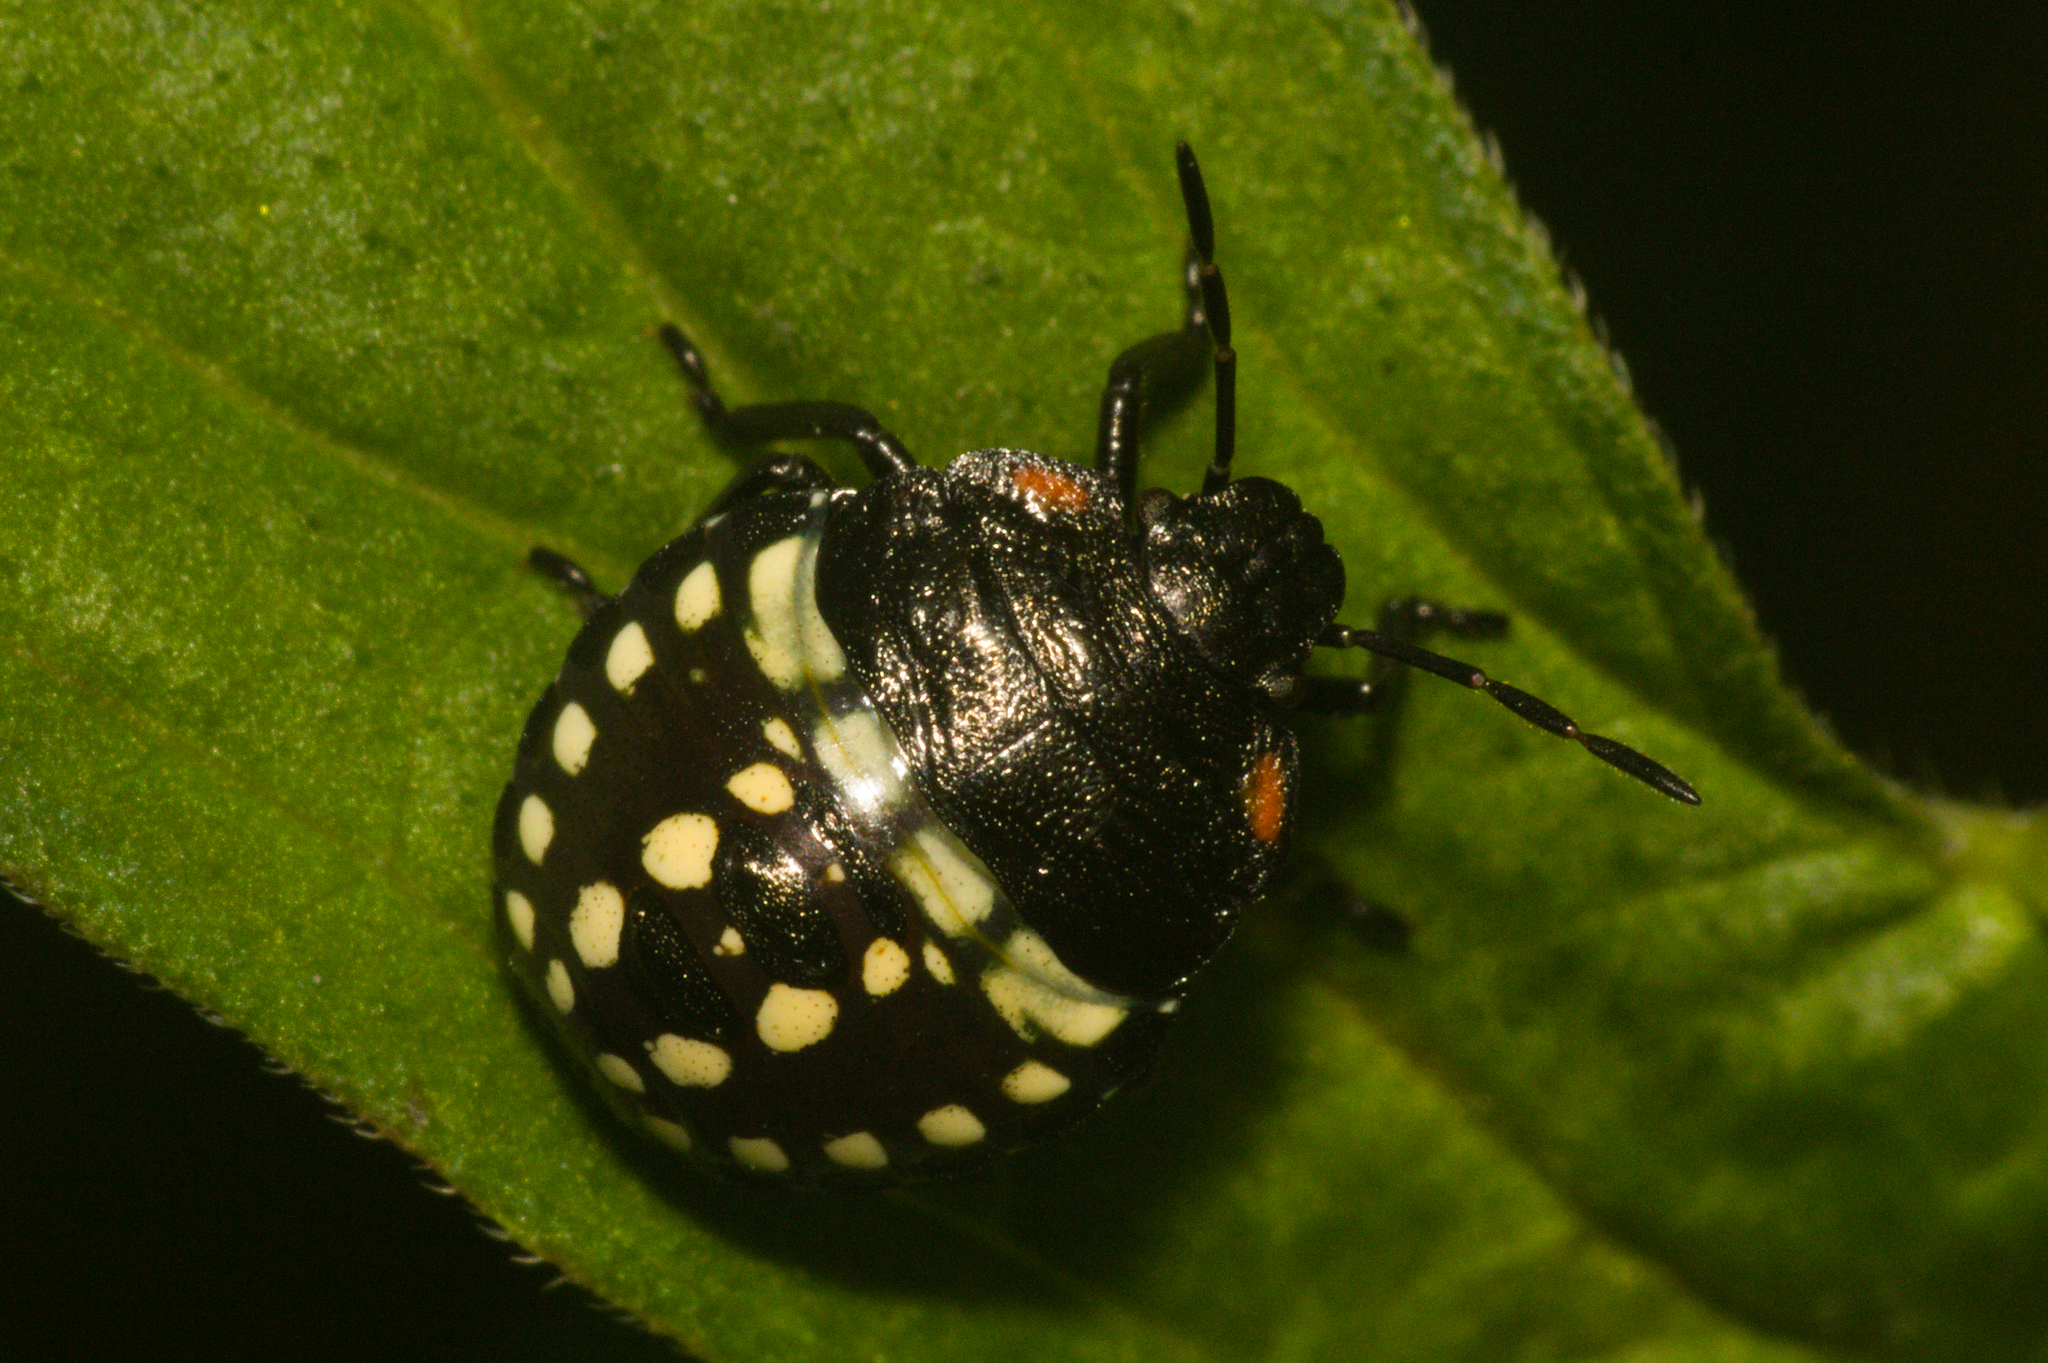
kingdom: Animalia
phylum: Arthropoda
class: Insecta
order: Hemiptera
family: Pentatomidae
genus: Nezara
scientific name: Nezara viridula
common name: Southern green stink bug
